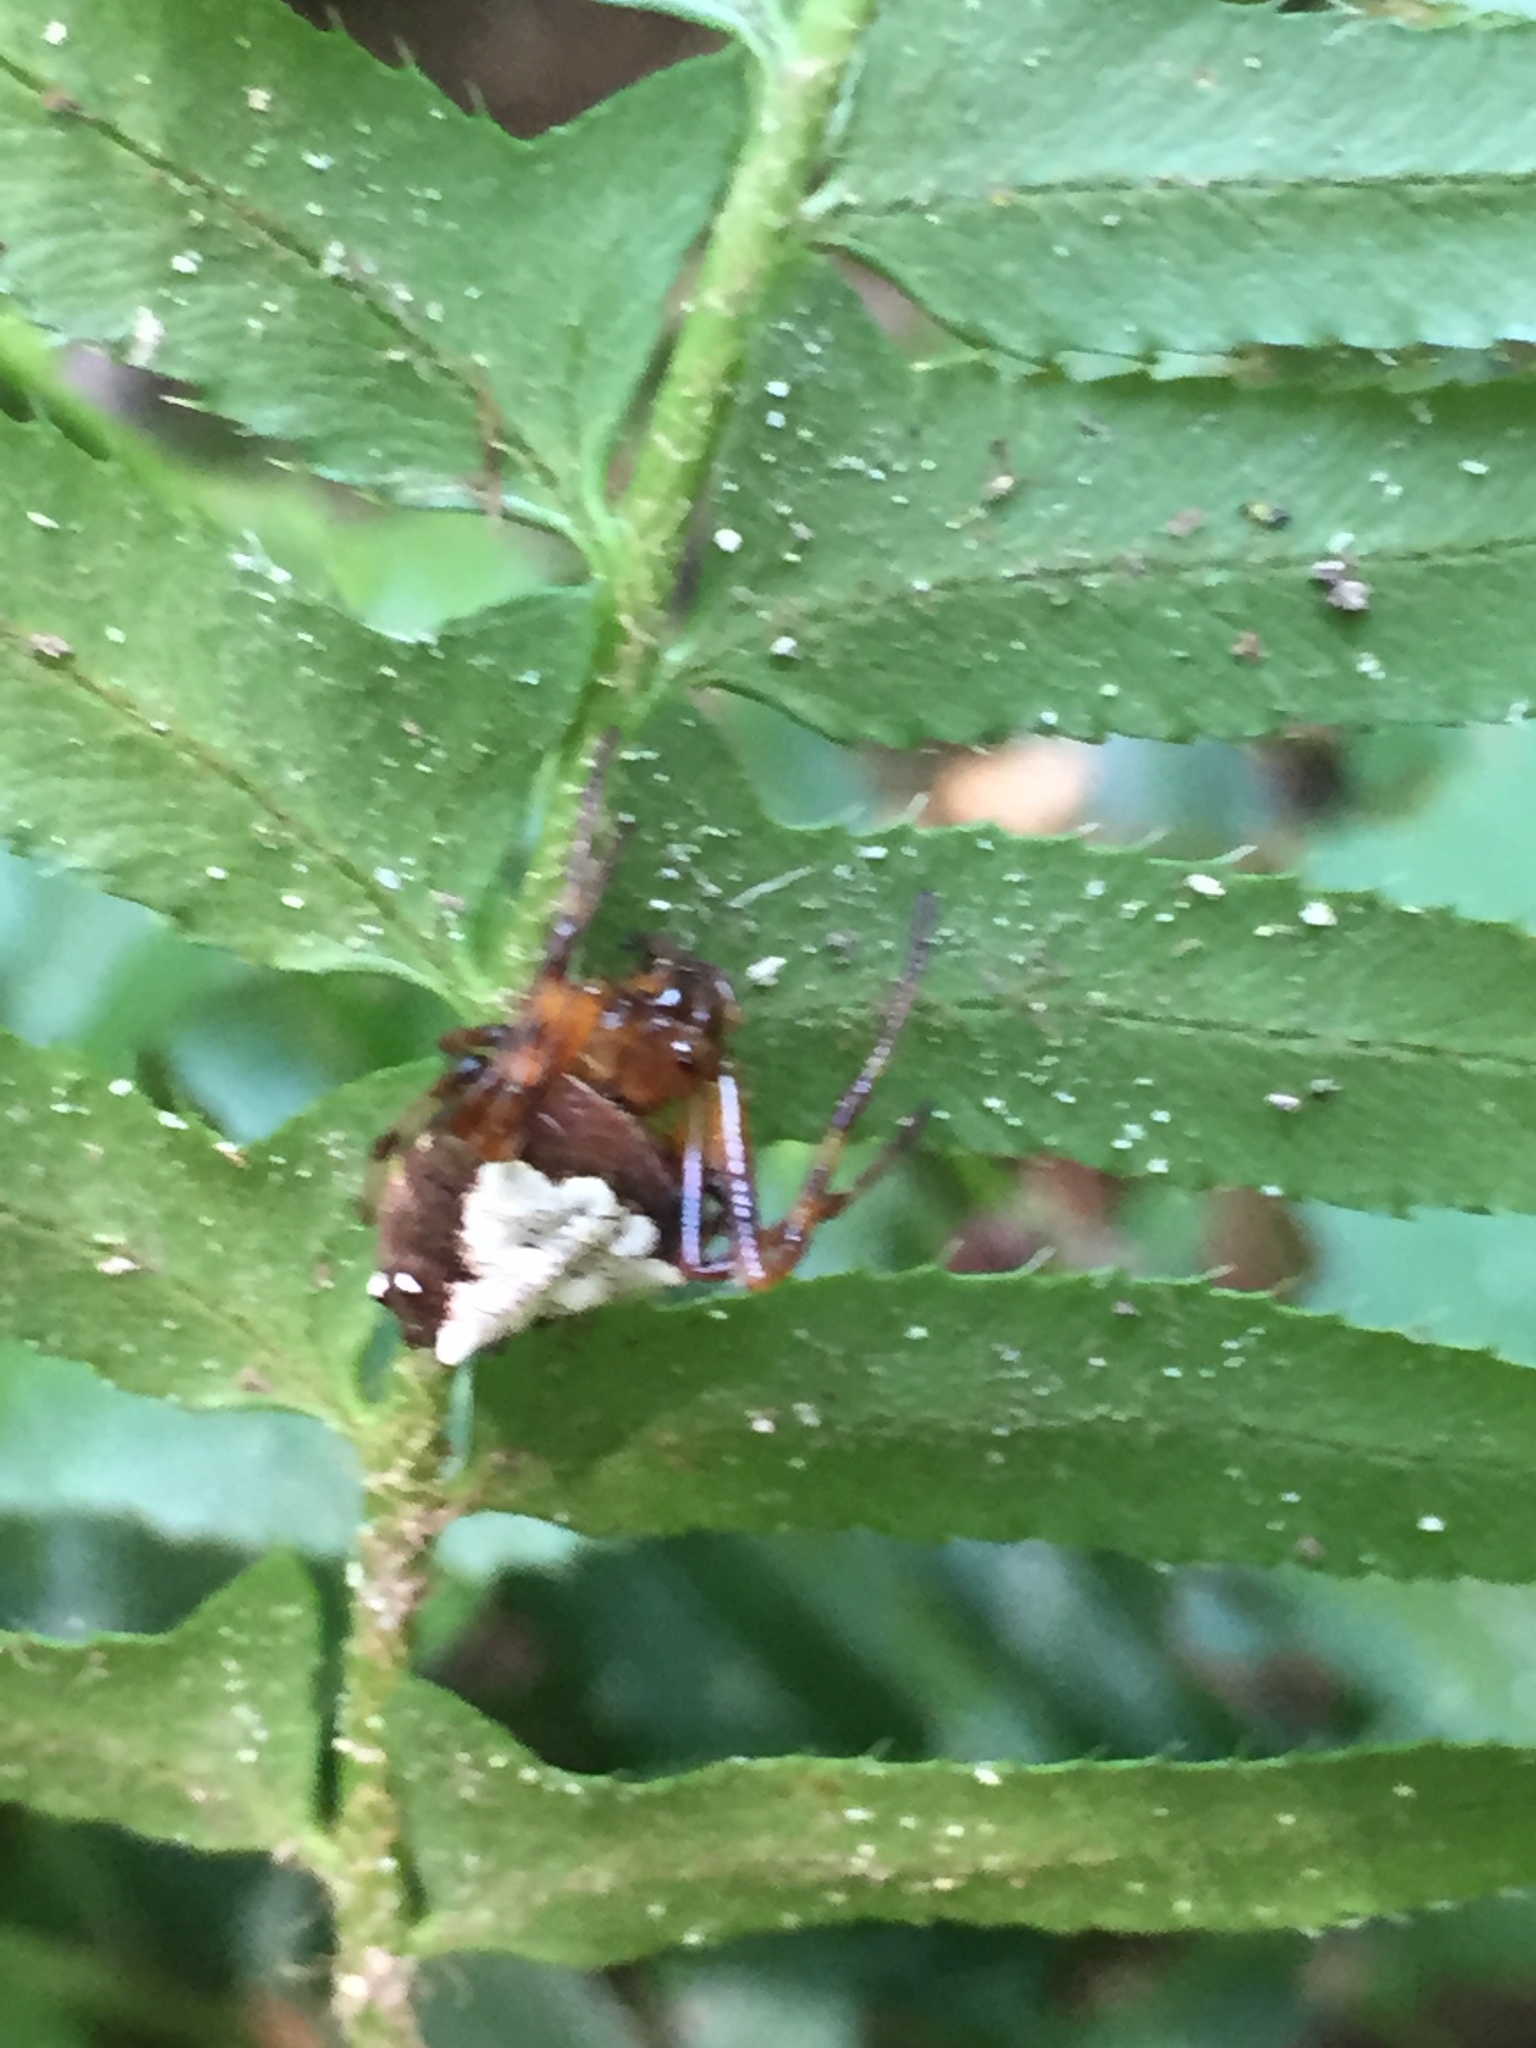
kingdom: Animalia
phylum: Arthropoda
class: Arachnida
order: Araneae
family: Araneidae
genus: Verrucosa
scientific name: Verrucosa arenata
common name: Orb weavers
